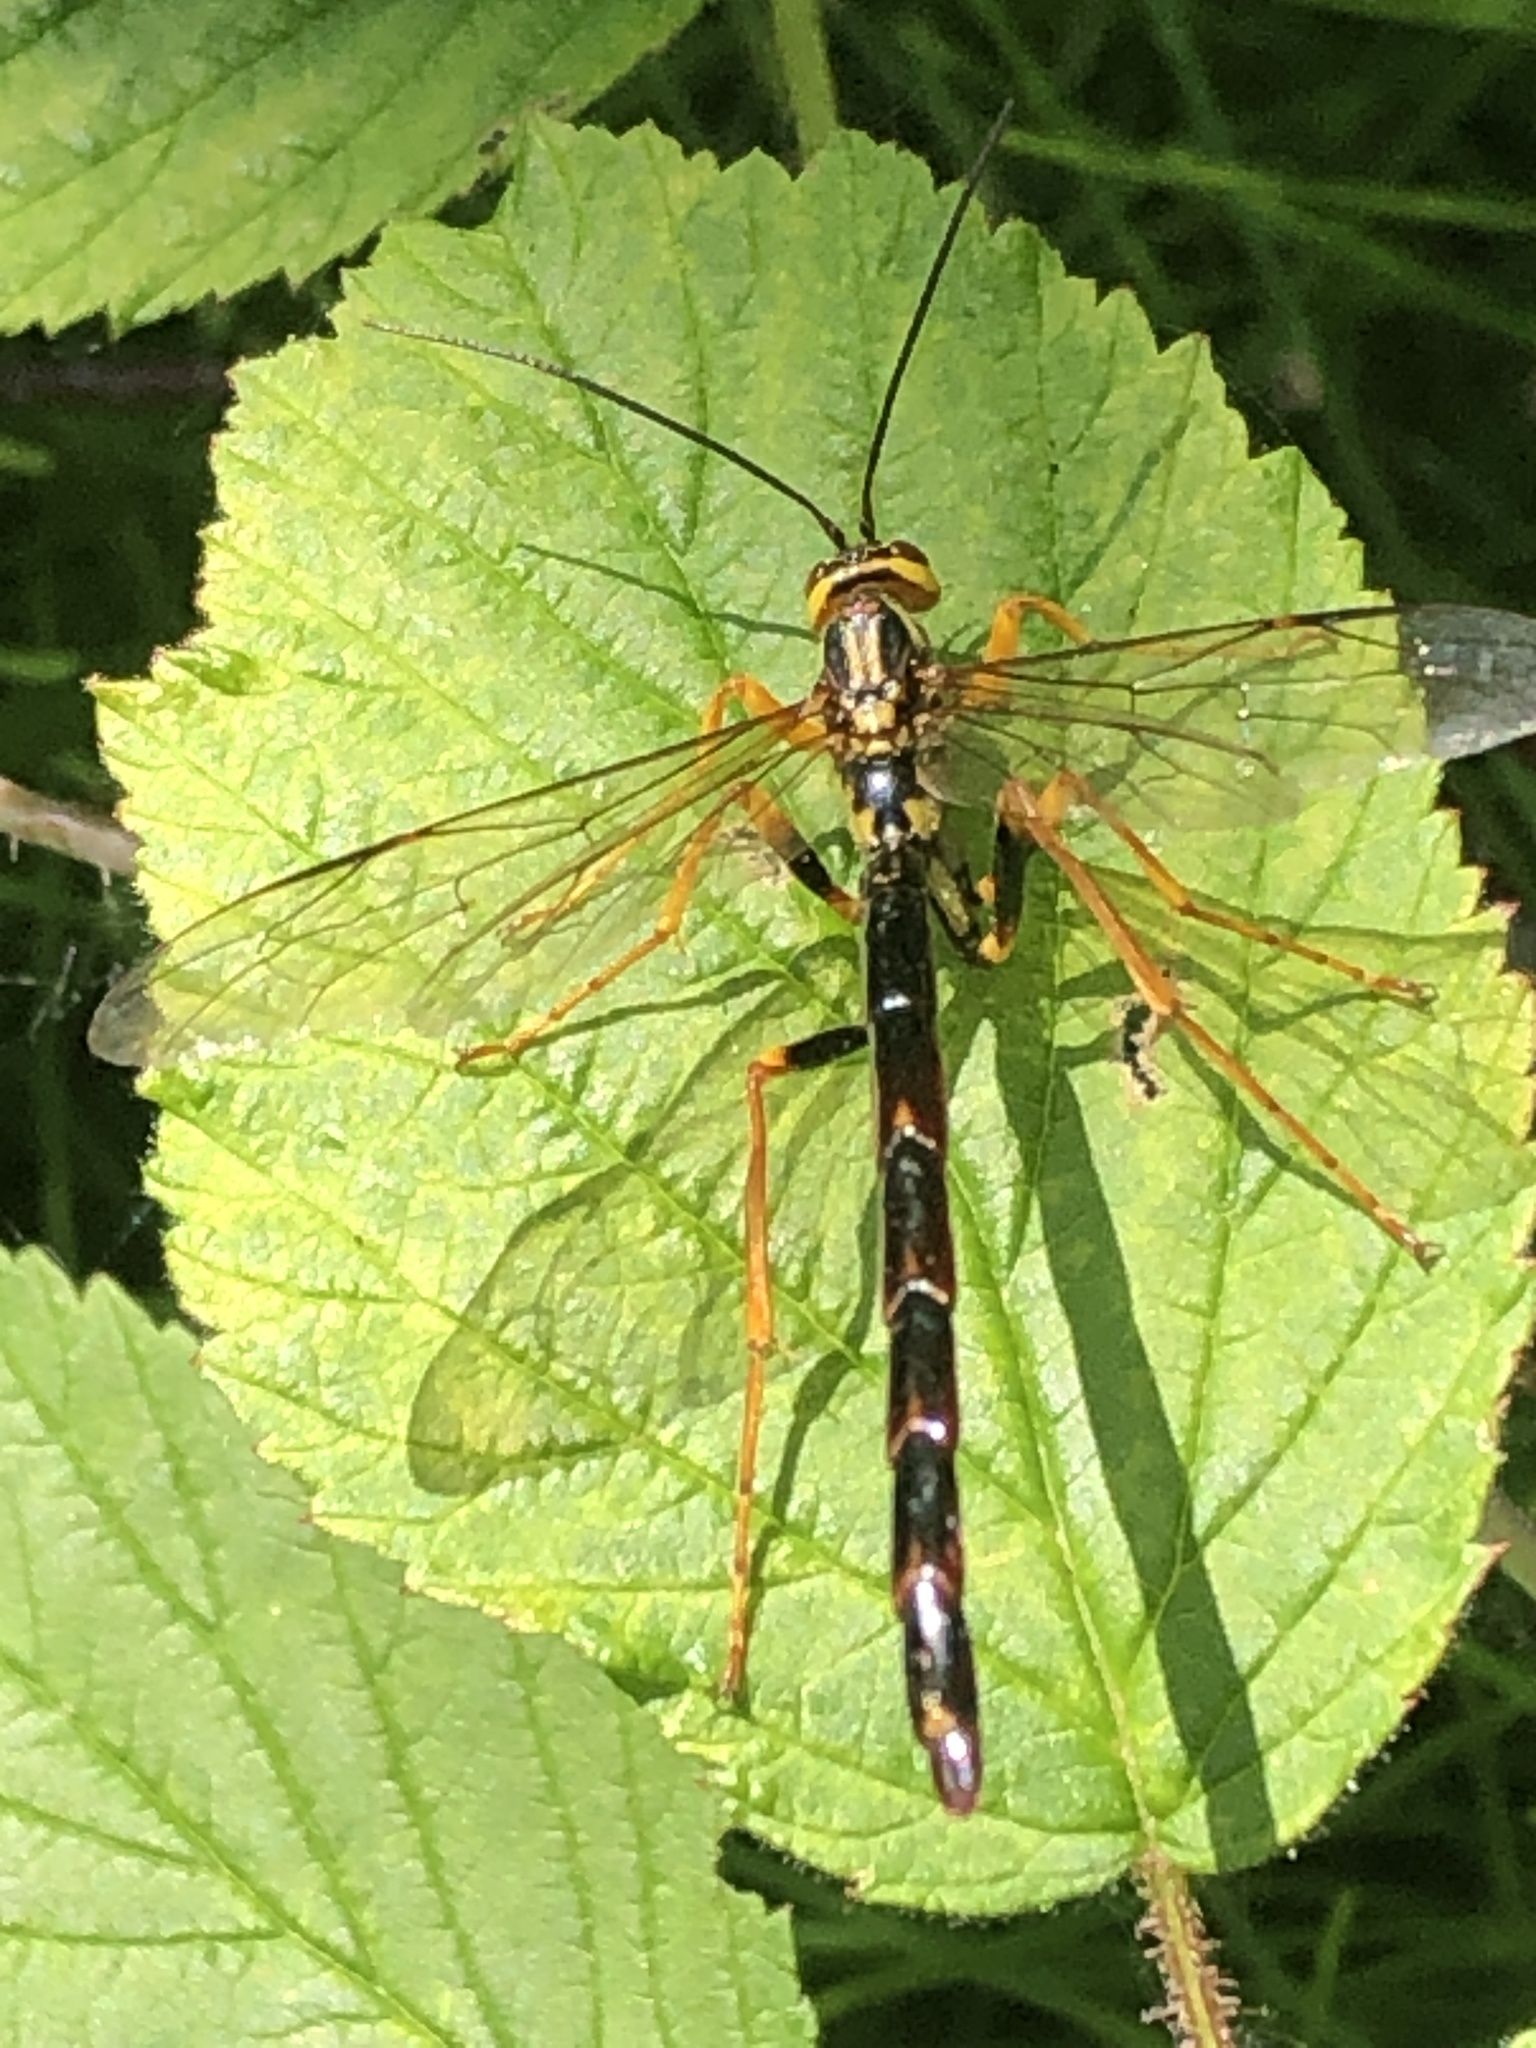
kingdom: Animalia
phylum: Arthropoda
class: Insecta
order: Hymenoptera
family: Ichneumonidae
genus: Megarhyssa
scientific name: Megarhyssa atrata
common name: Black giant ichneumonid wasp
